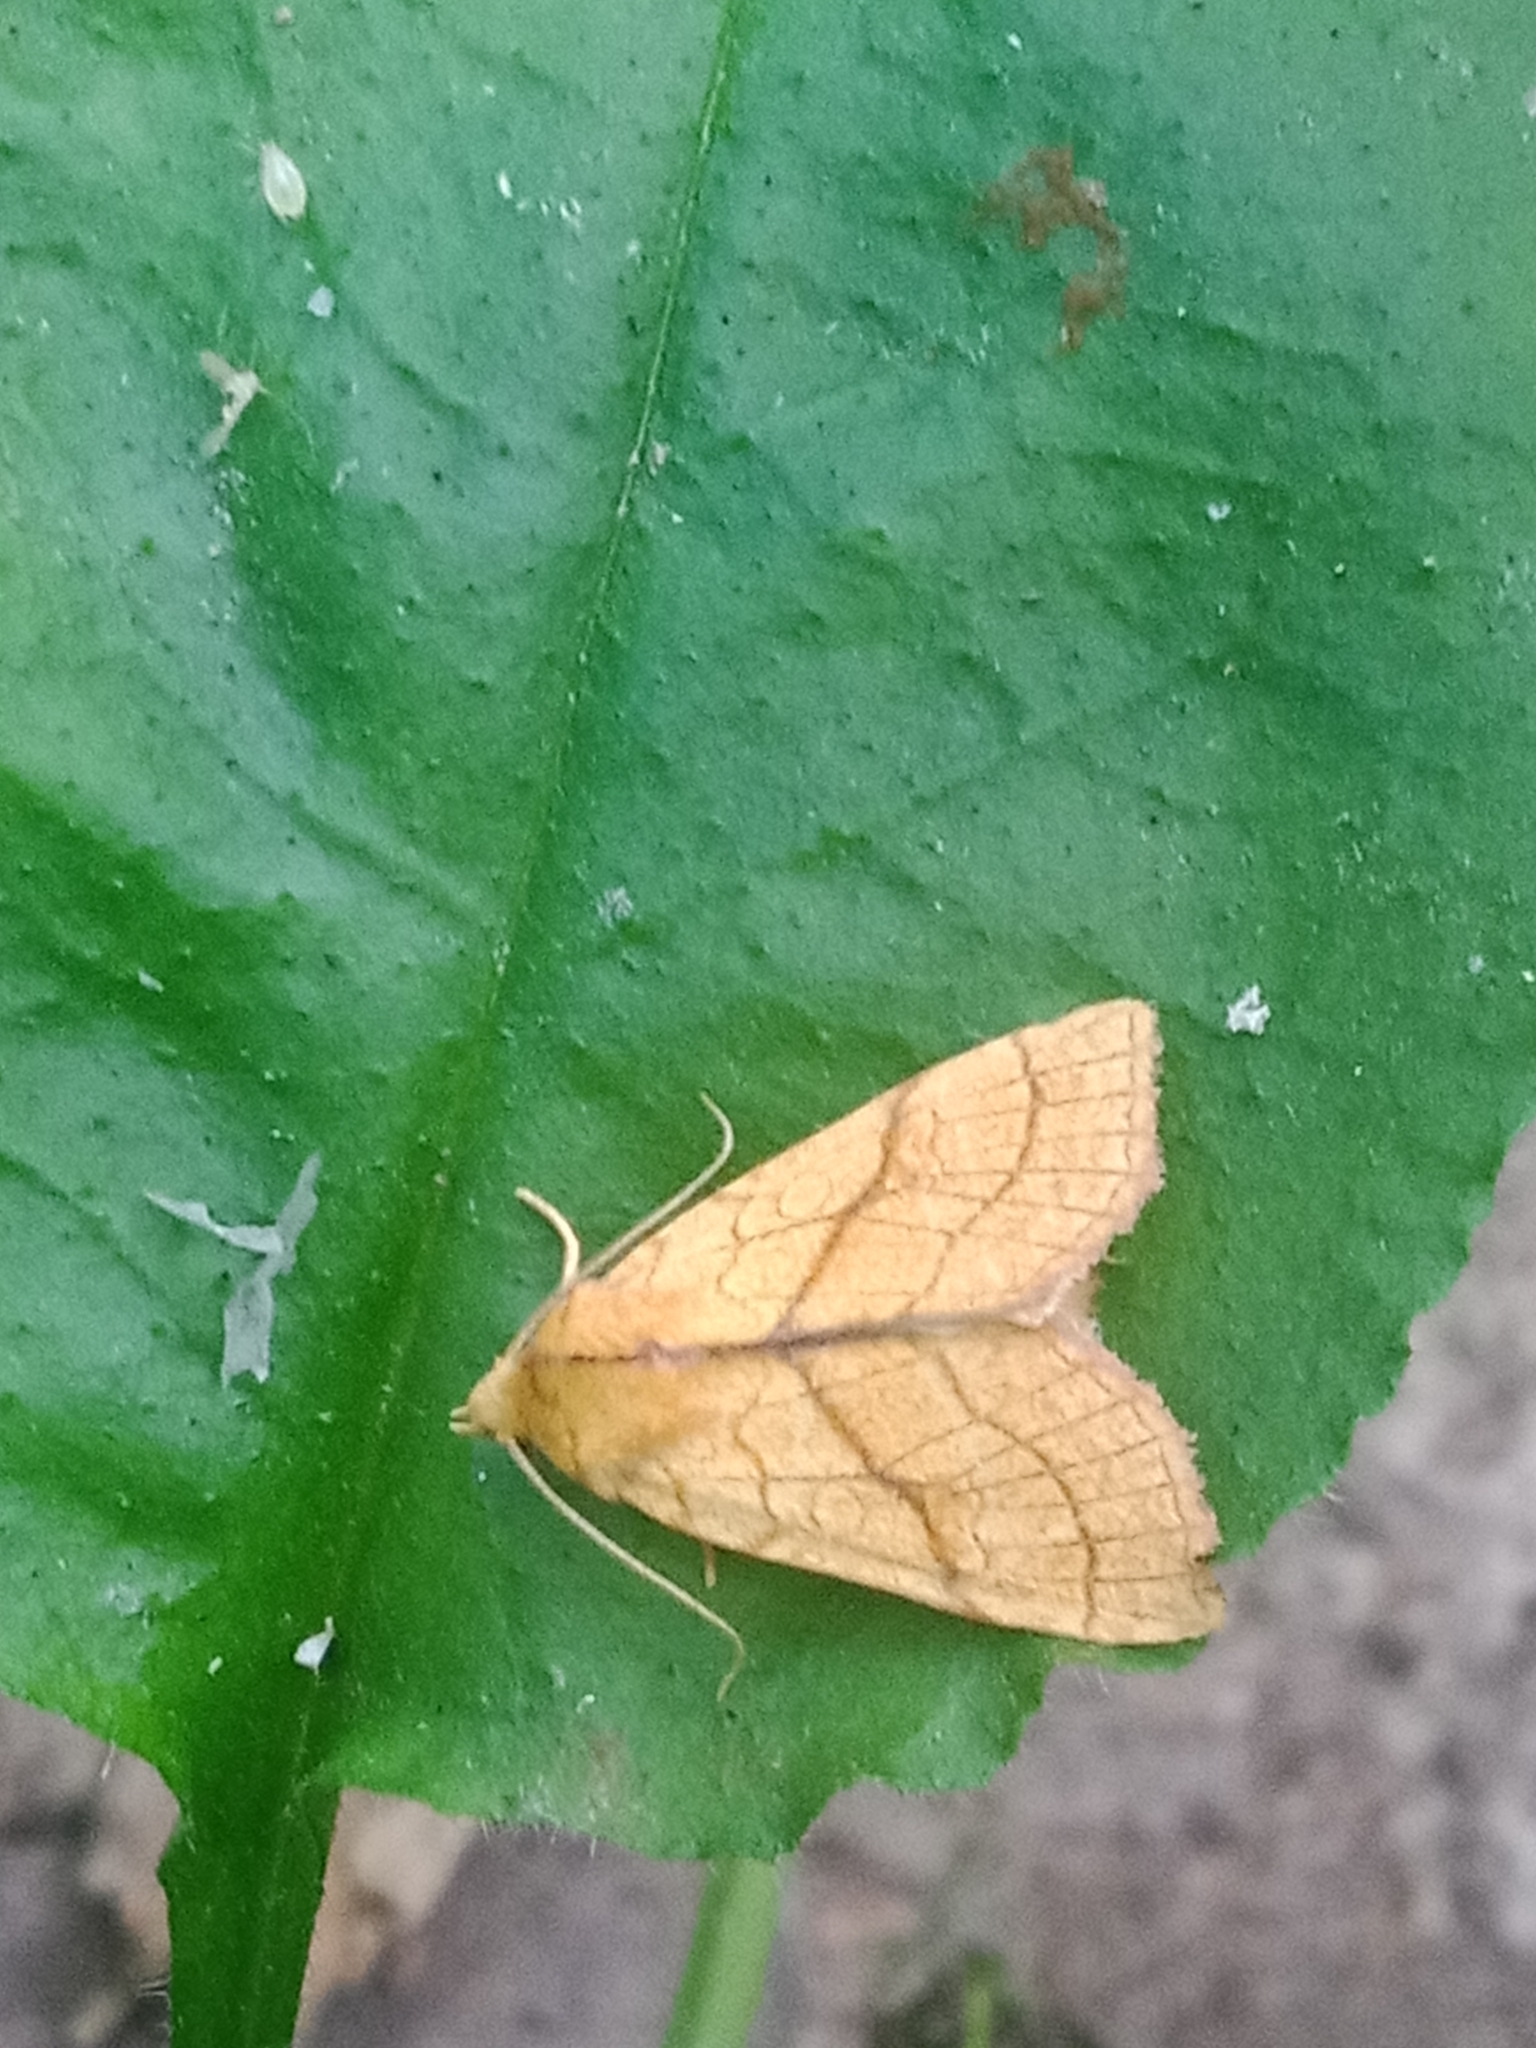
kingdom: Animalia
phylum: Arthropoda
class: Insecta
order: Lepidoptera
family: Noctuidae
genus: Tiliacea
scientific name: Tiliacea citrago
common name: Orange sallow
